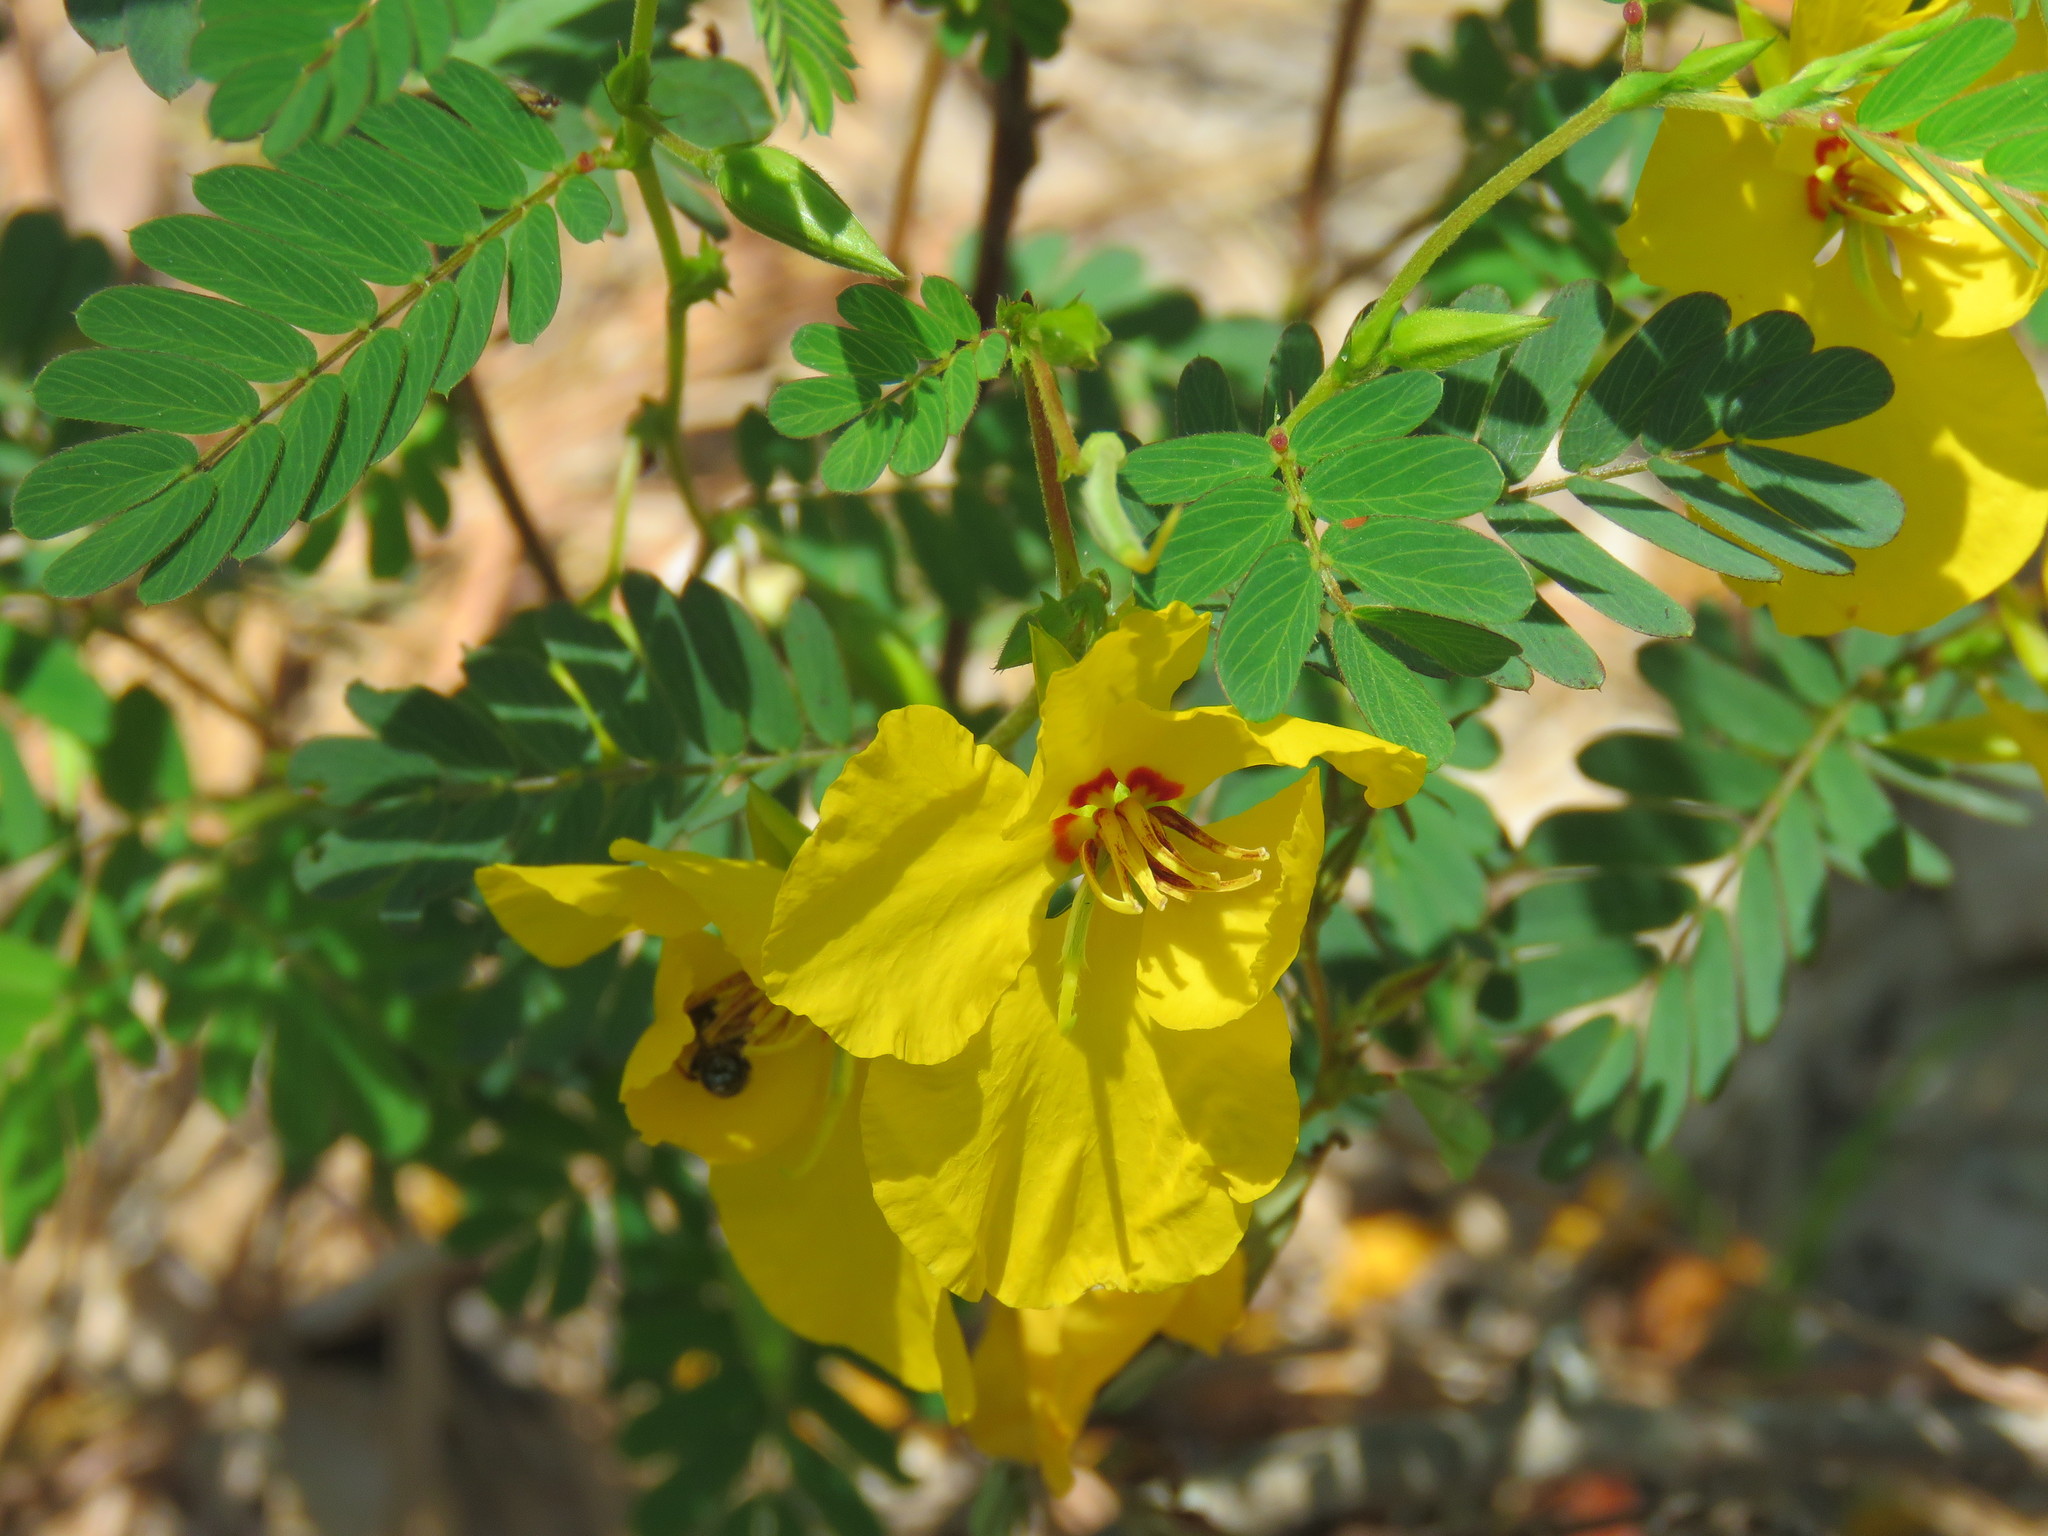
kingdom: Plantae
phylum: Tracheophyta
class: Magnoliopsida
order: Fabales
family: Fabaceae
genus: Chamaecrista
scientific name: Chamaecrista fasciculata
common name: Golden cassia
